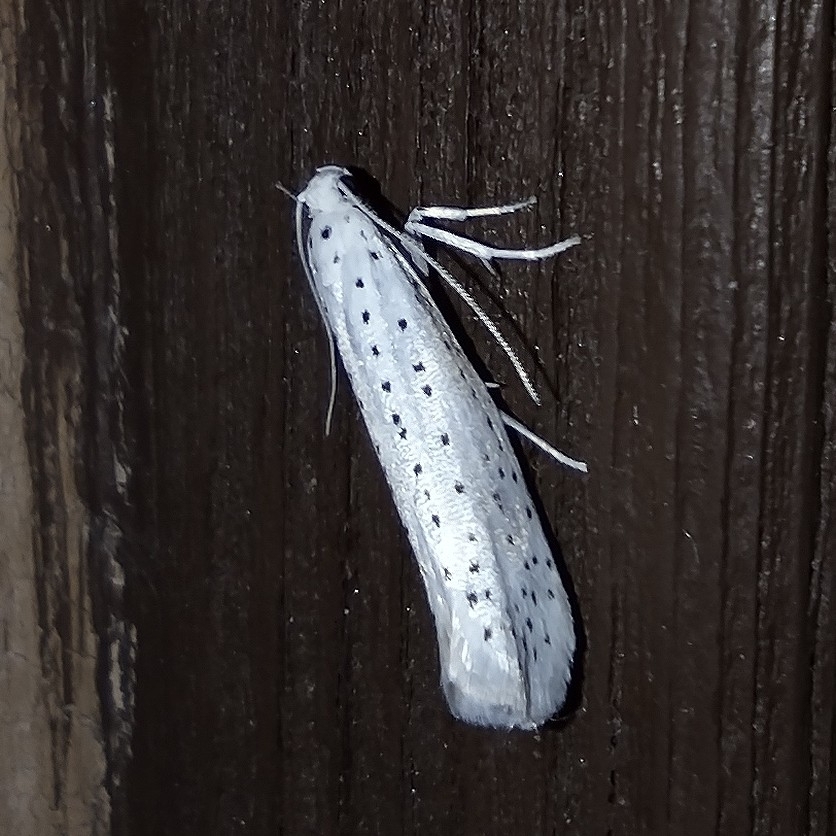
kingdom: Animalia
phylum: Arthropoda
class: Insecta
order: Lepidoptera
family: Yponomeutidae
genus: Yponomeuta
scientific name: Yponomeuta evonymella
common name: Bird-cherry ermine
